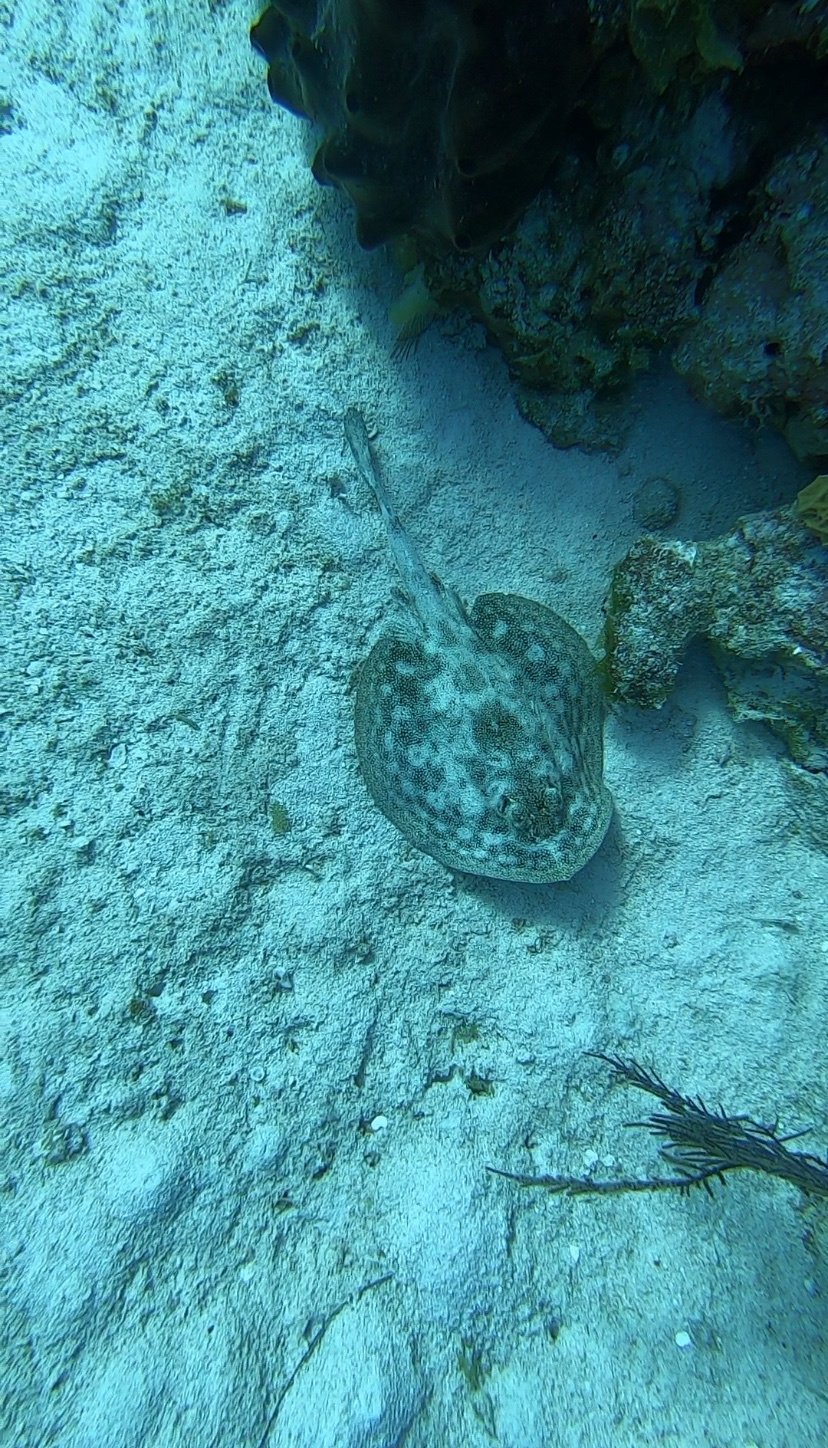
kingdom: Animalia
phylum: Chordata
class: Elasmobranchii
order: Myliobatiformes
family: Urotrygonidae
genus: Urobatis
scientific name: Urobatis jamaicensis
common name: Yellow stingray
